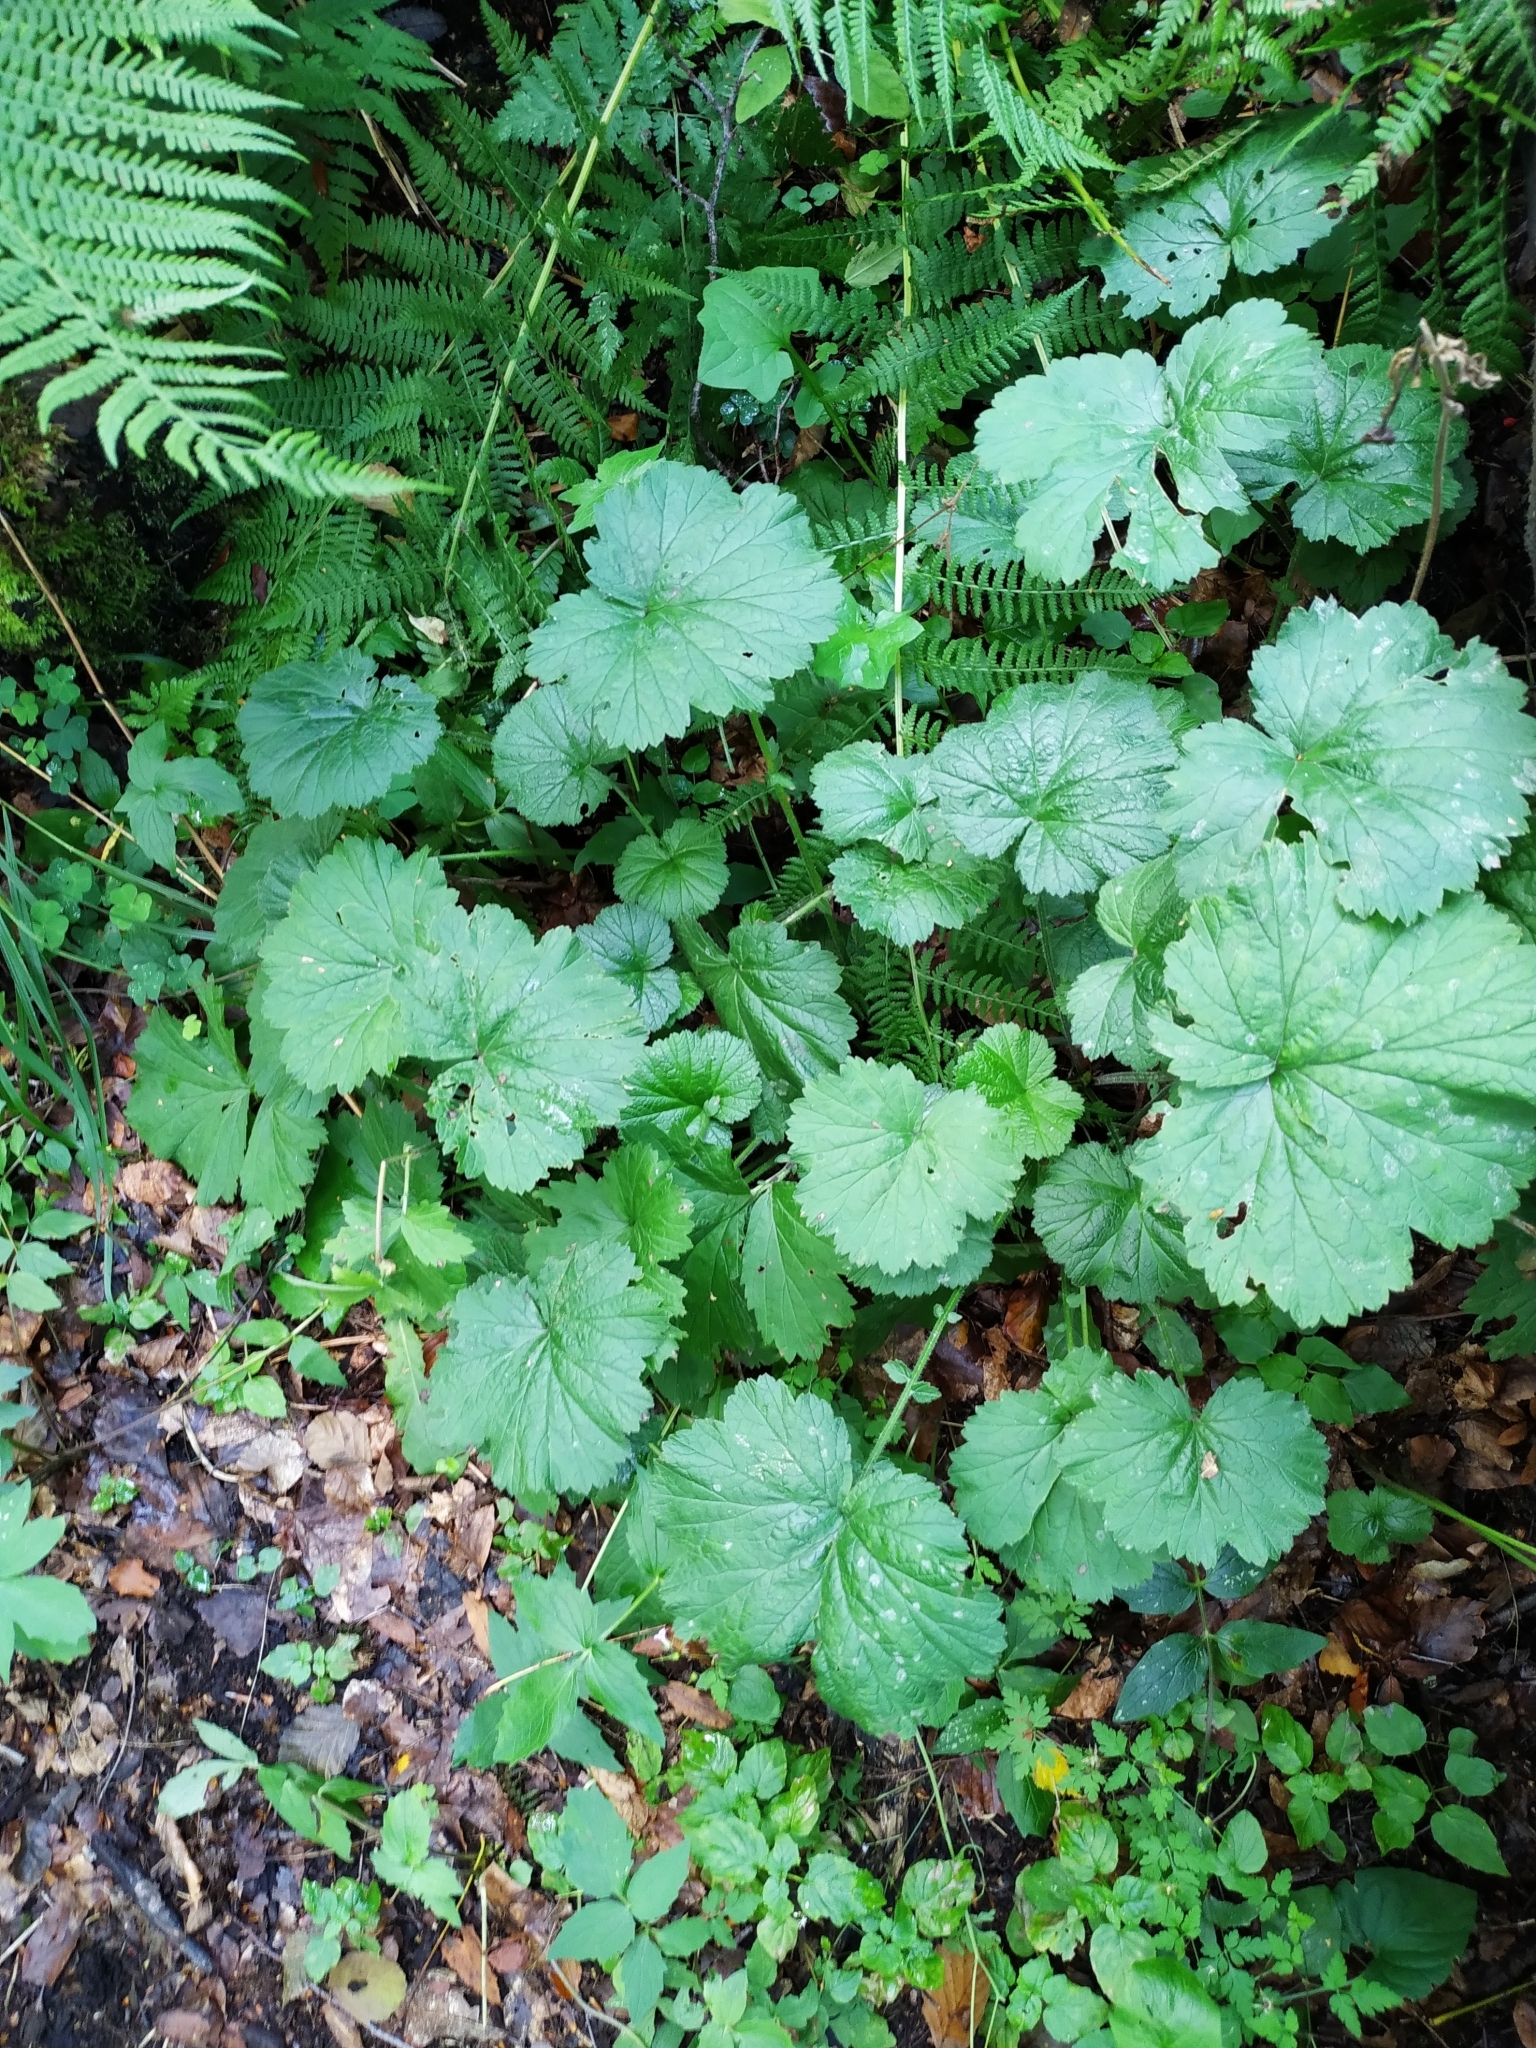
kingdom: Plantae
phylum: Tracheophyta
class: Magnoliopsida
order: Rosales
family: Rosaceae
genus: Geum
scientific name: Geum urbanum
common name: Wood avens
